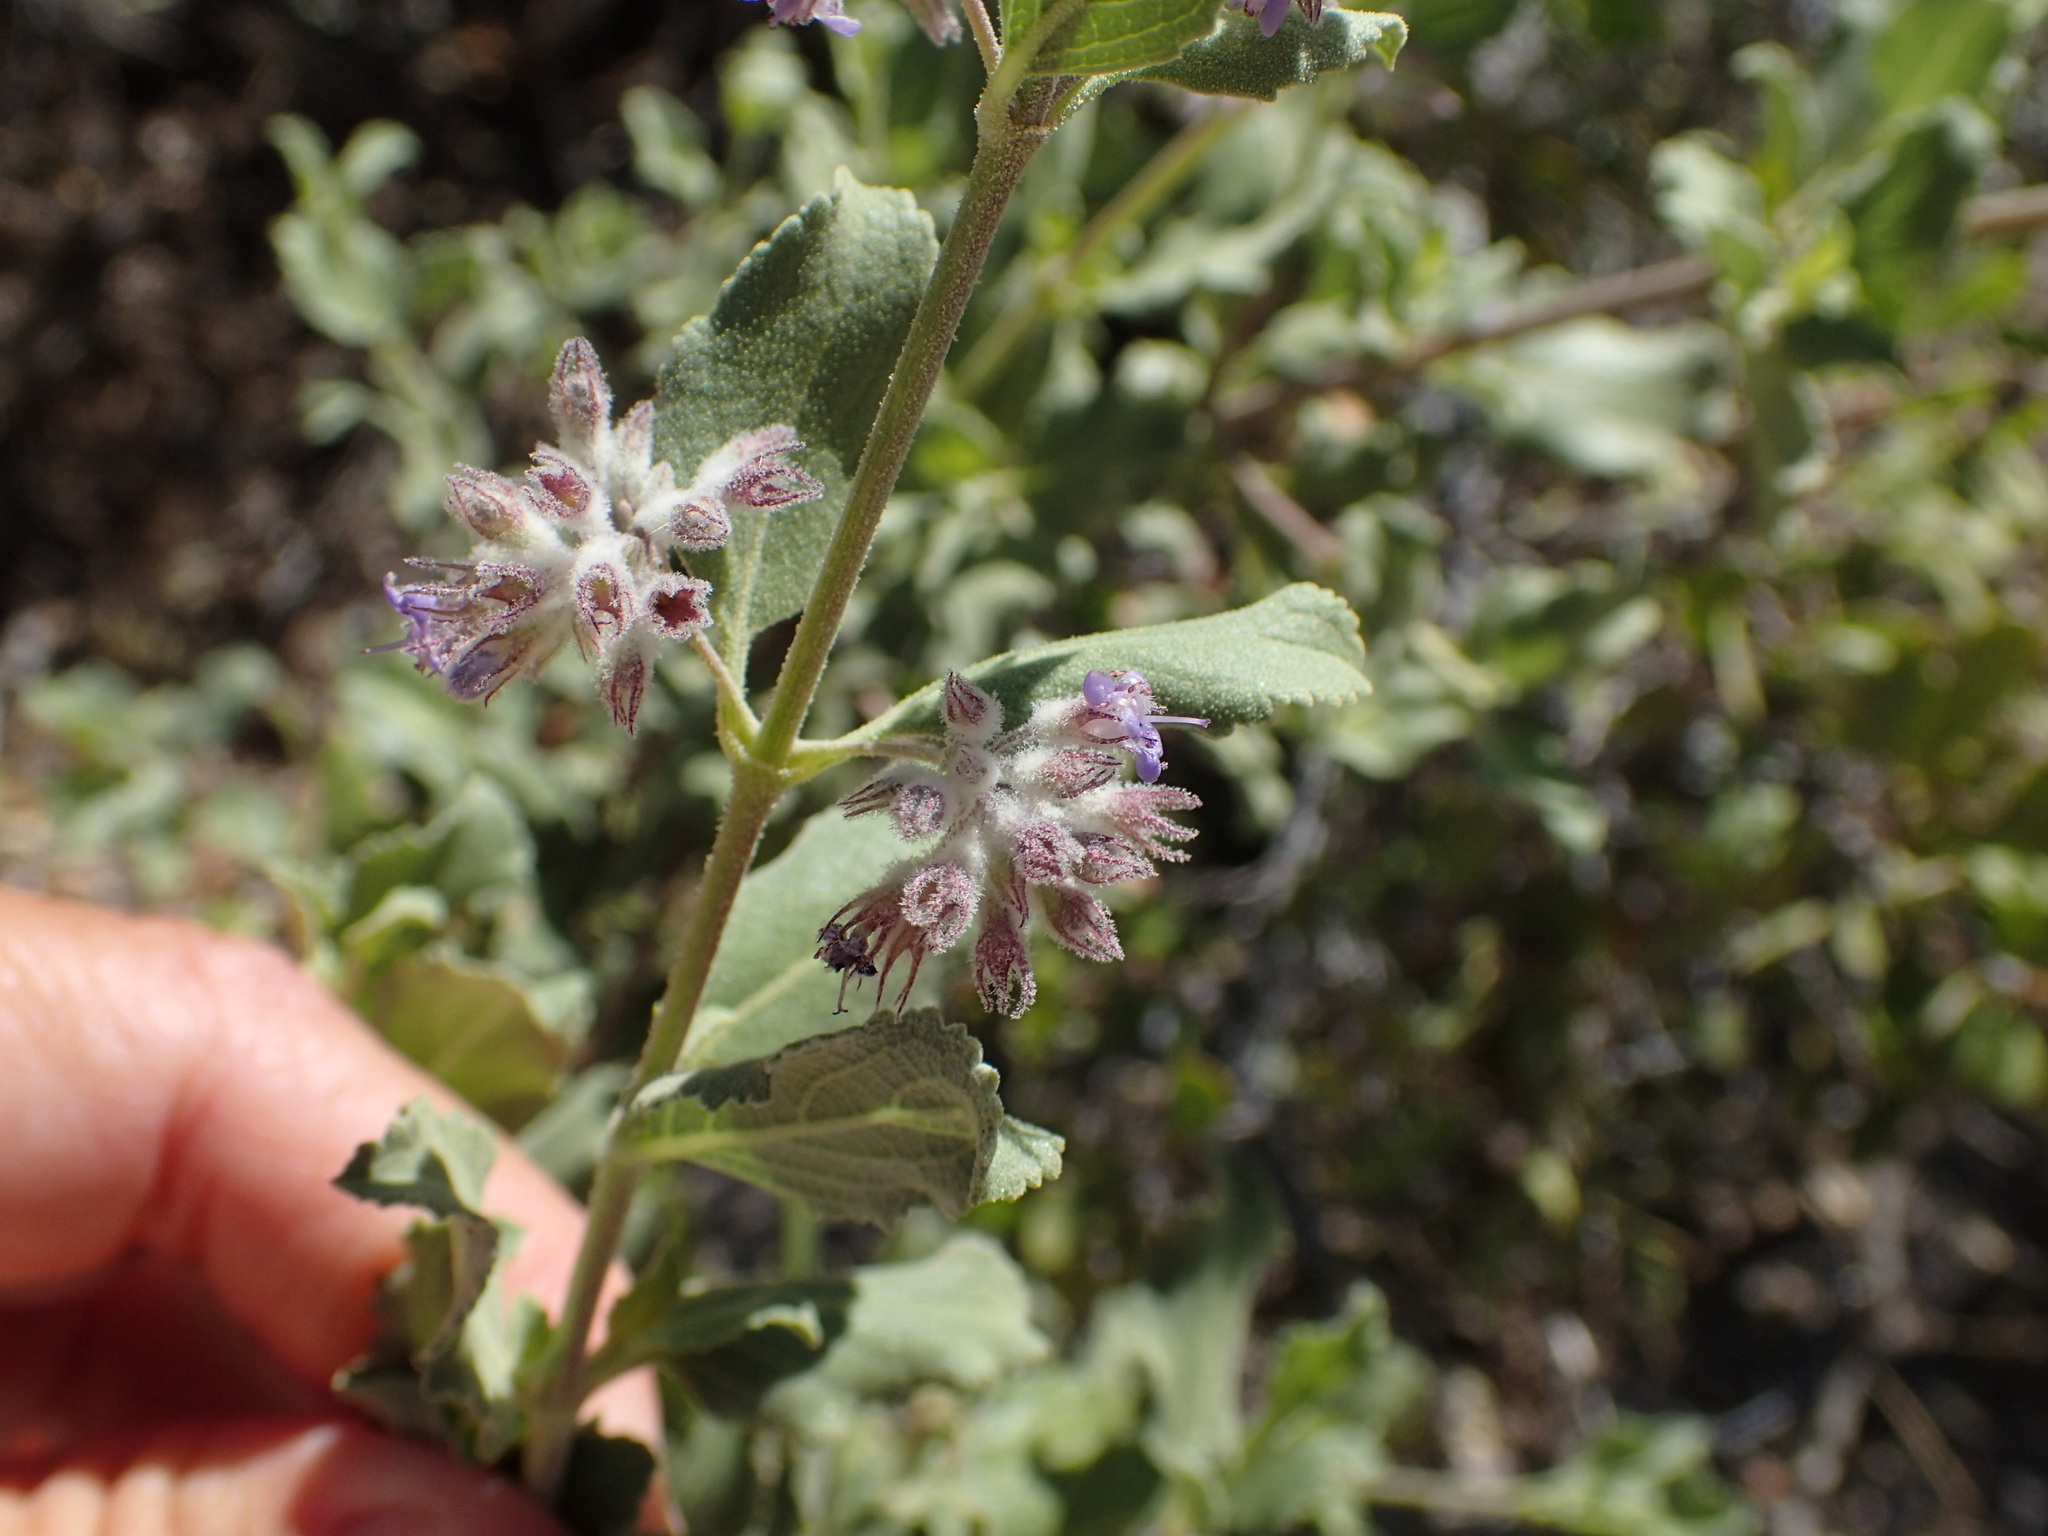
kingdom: Plantae
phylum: Tracheophyta
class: Magnoliopsida
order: Lamiales
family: Lamiaceae
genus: Condea
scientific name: Condea emoryi
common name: Chia
